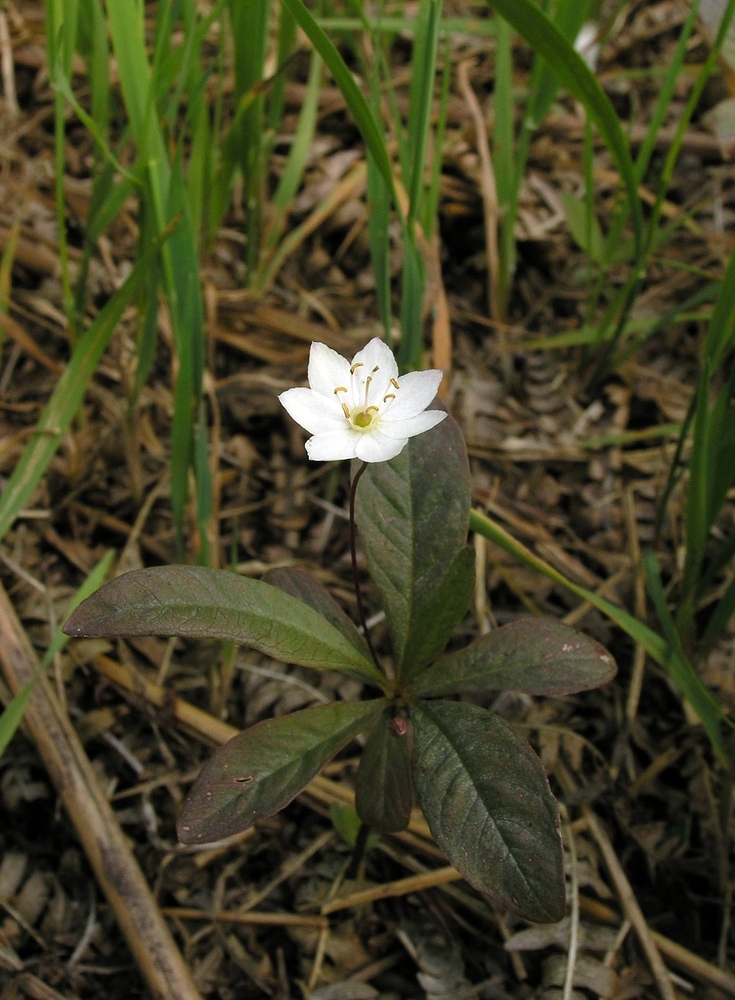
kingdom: Plantae
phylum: Tracheophyta
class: Magnoliopsida
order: Ericales
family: Primulaceae
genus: Lysimachia
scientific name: Lysimachia europaea
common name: Arctic starflower
